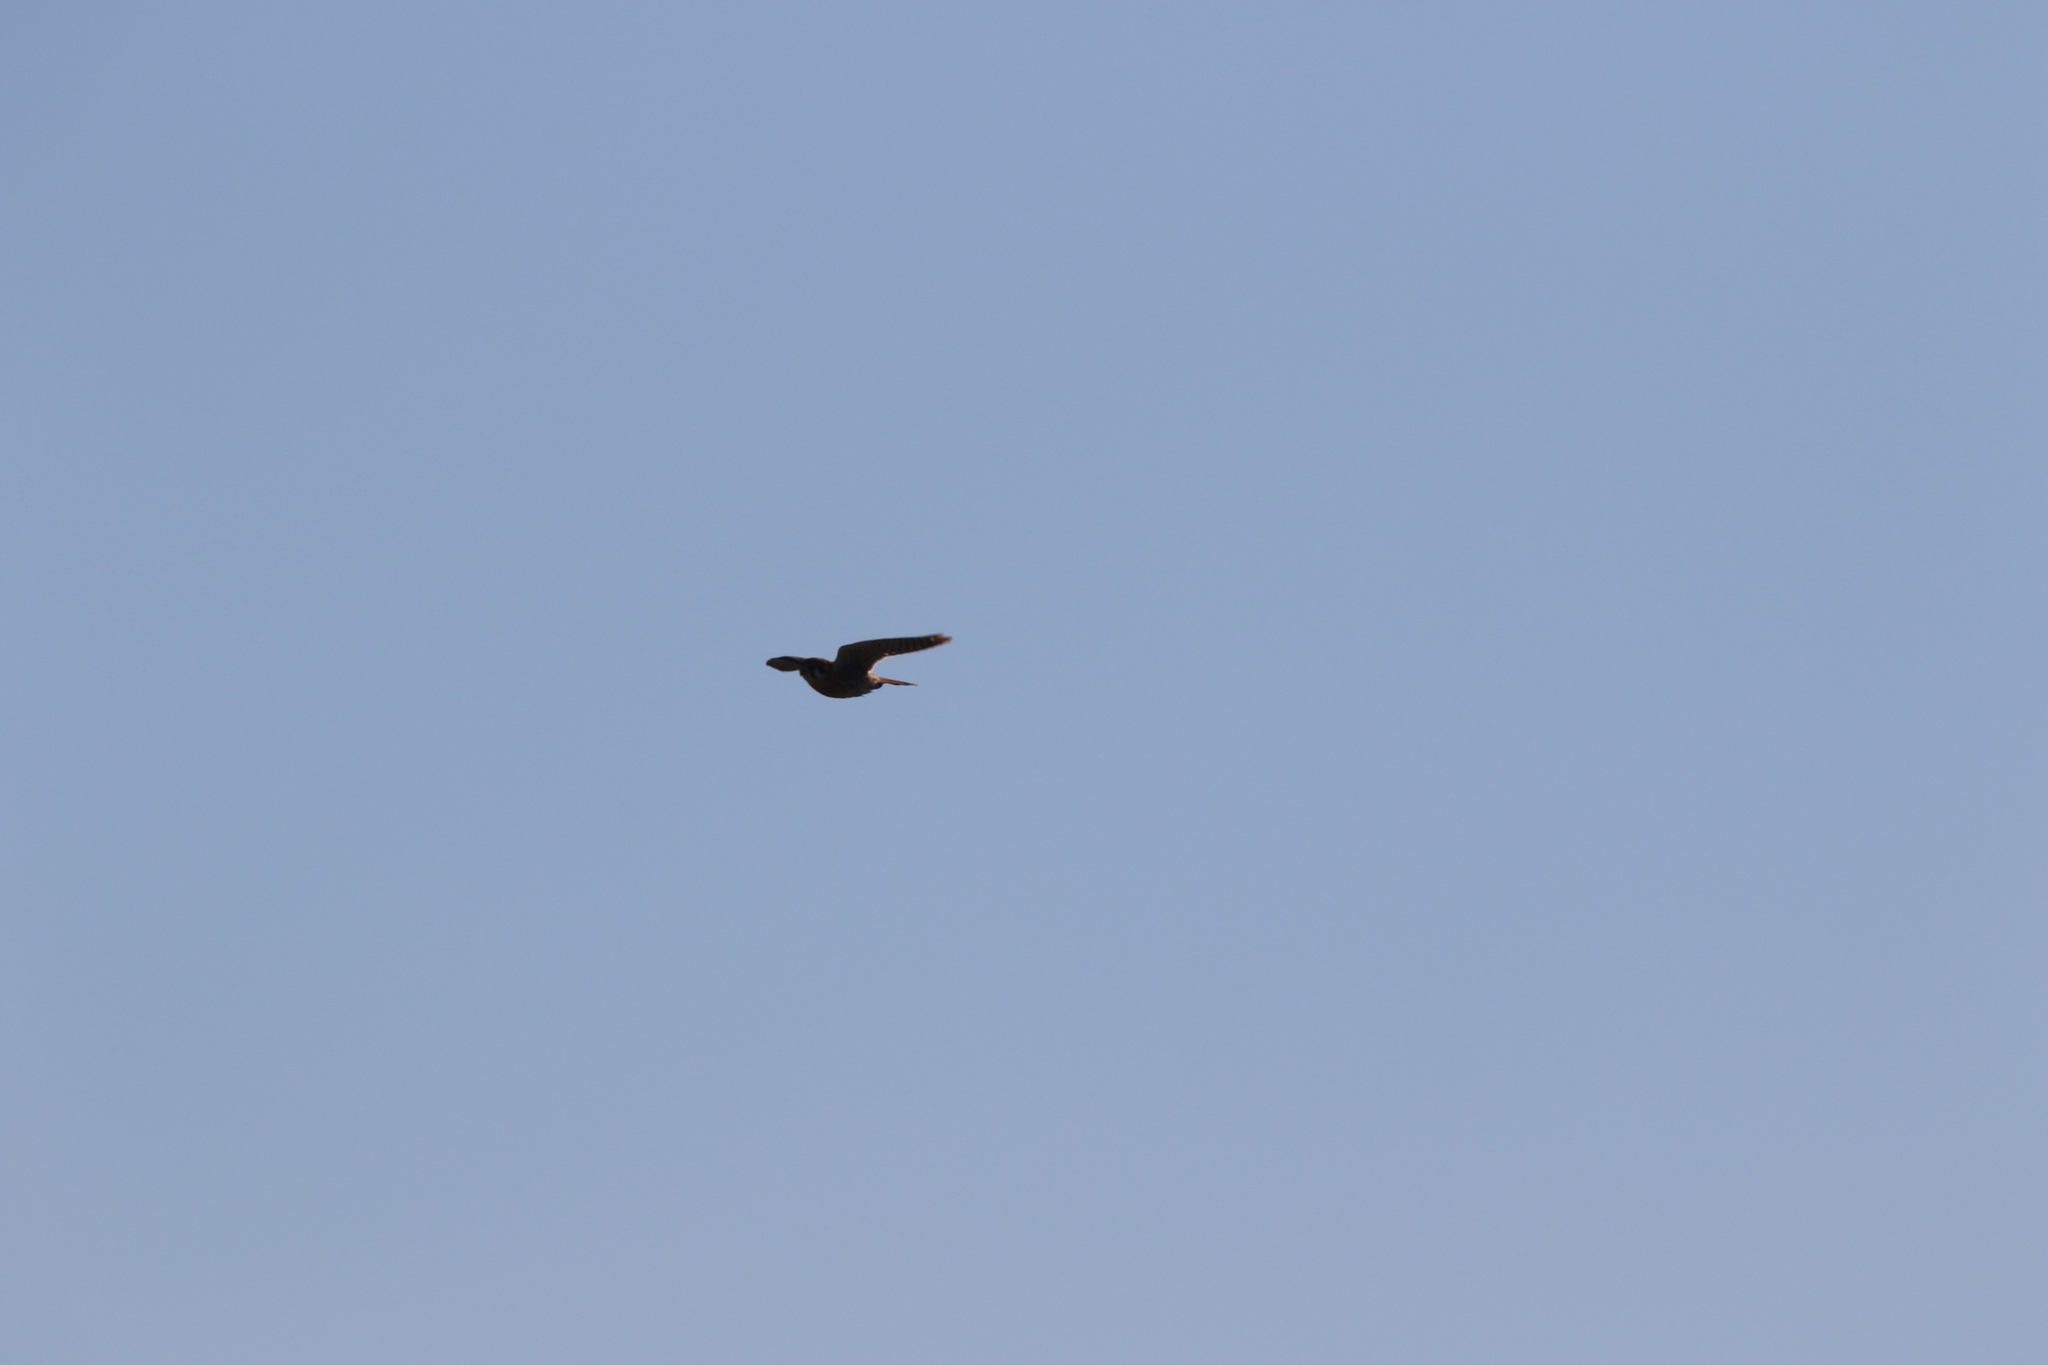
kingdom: Animalia
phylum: Chordata
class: Aves
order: Falconiformes
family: Falconidae
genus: Falco
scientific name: Falco sparverius
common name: American kestrel
